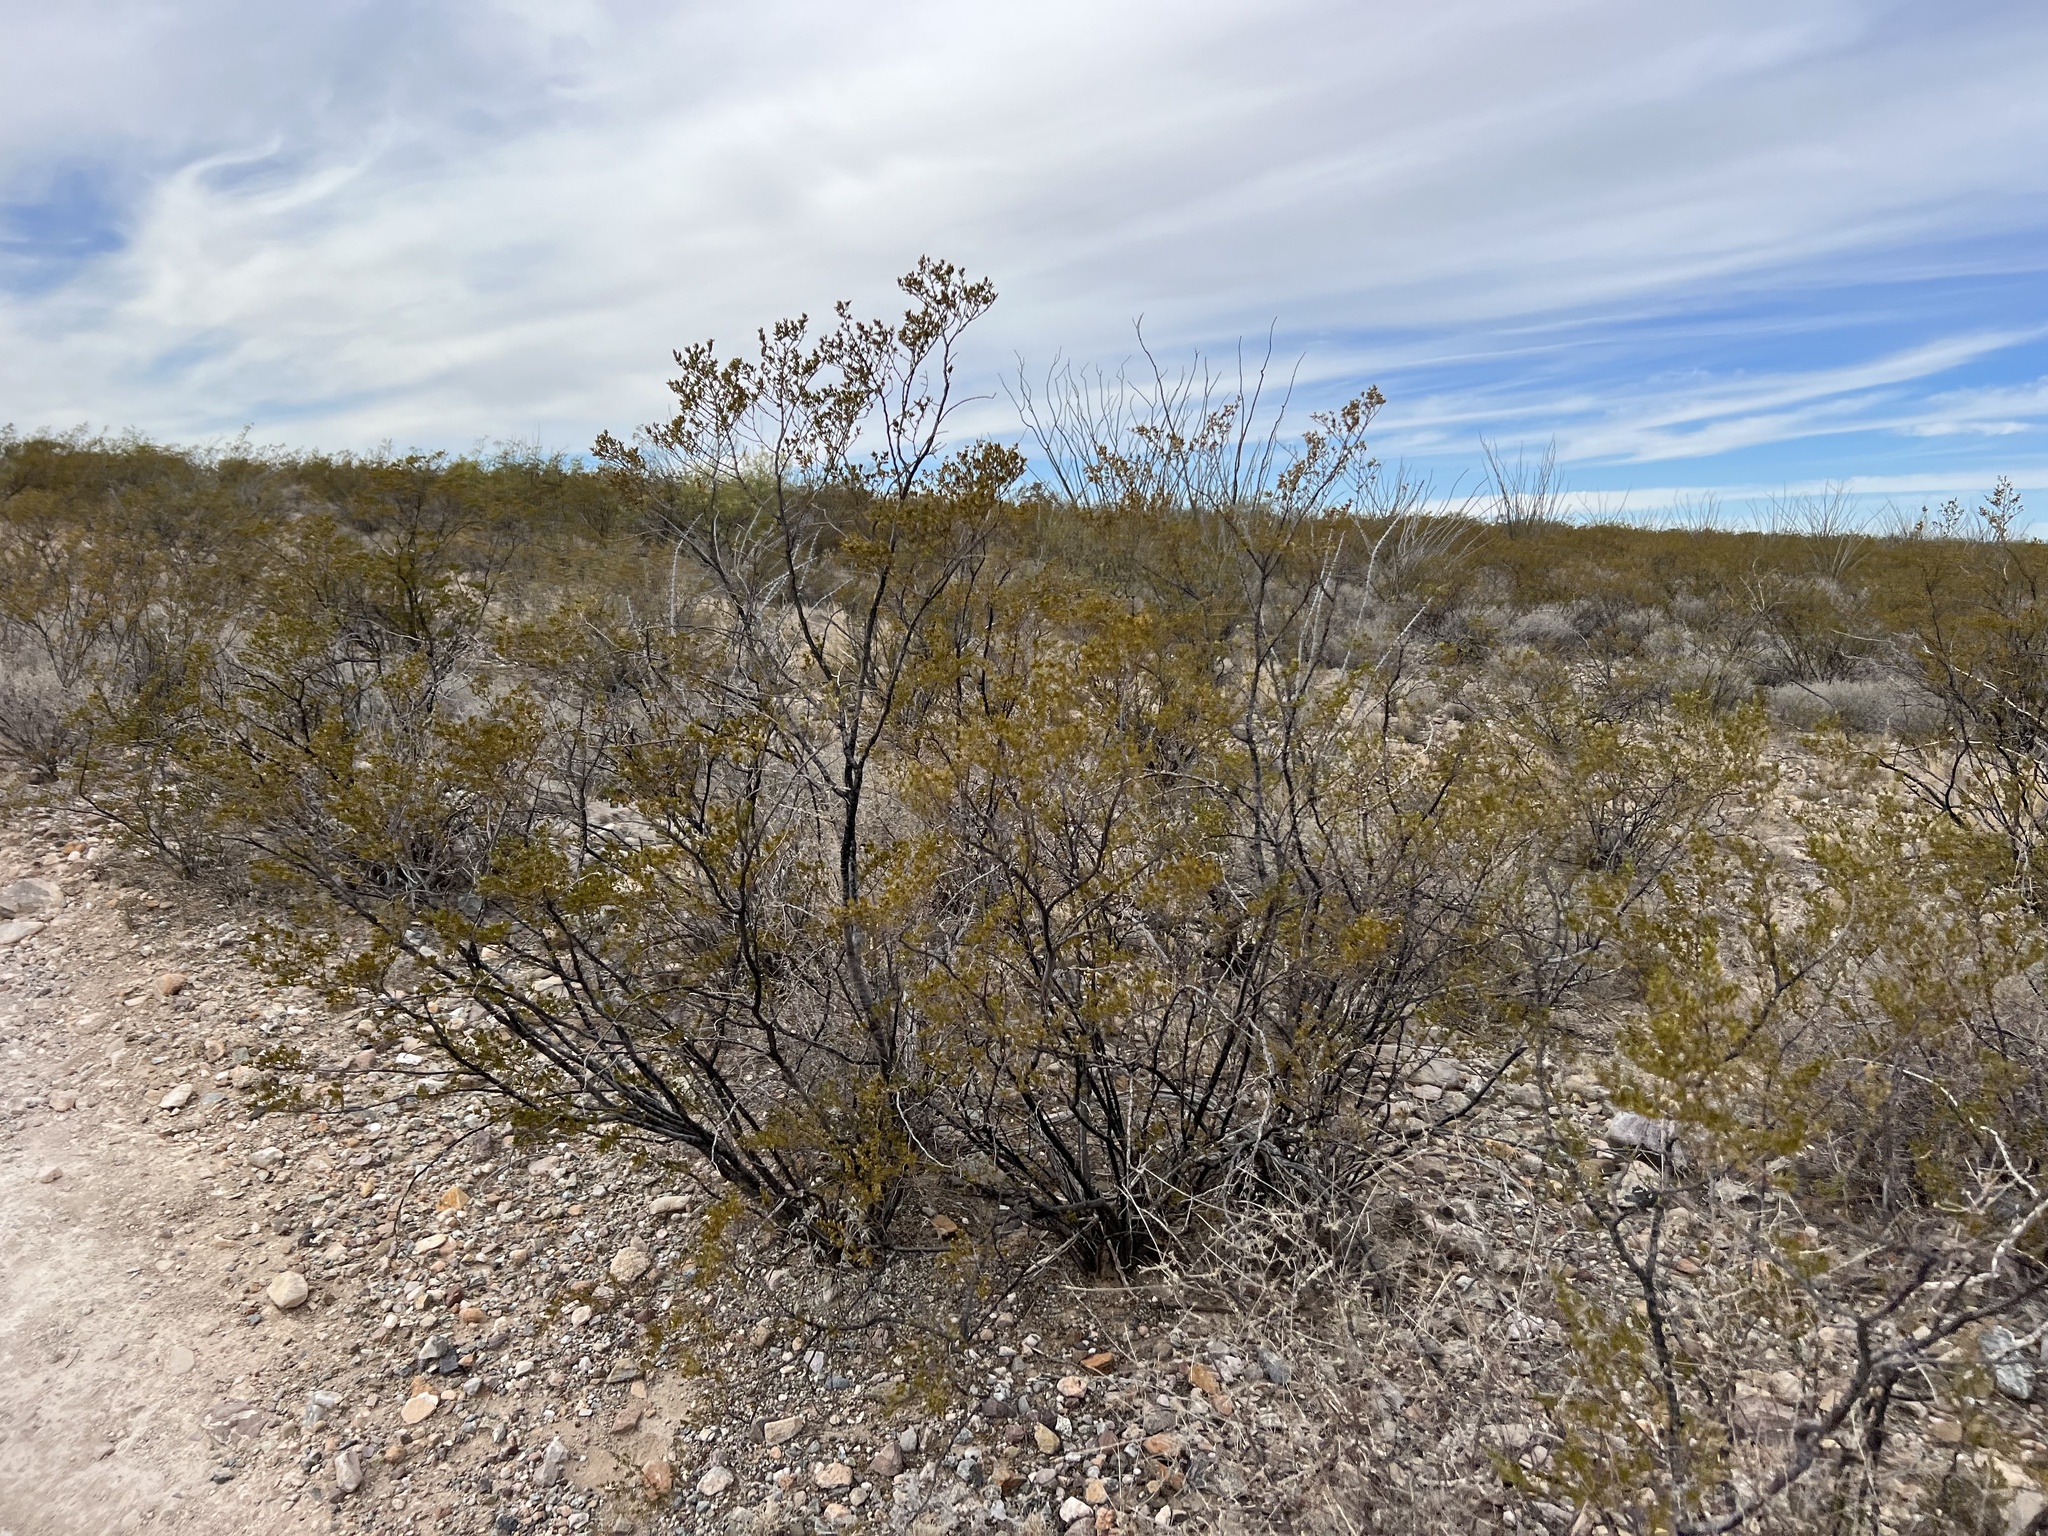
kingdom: Plantae
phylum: Tracheophyta
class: Magnoliopsida
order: Zygophyllales
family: Zygophyllaceae
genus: Larrea
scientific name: Larrea tridentata
